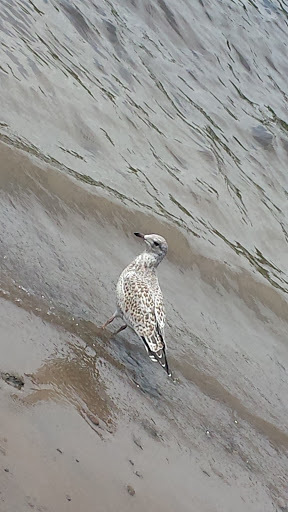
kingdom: Animalia
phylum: Chordata
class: Aves
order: Charadriiformes
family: Laridae
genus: Larus
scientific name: Larus delawarensis
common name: Ring-billed gull
